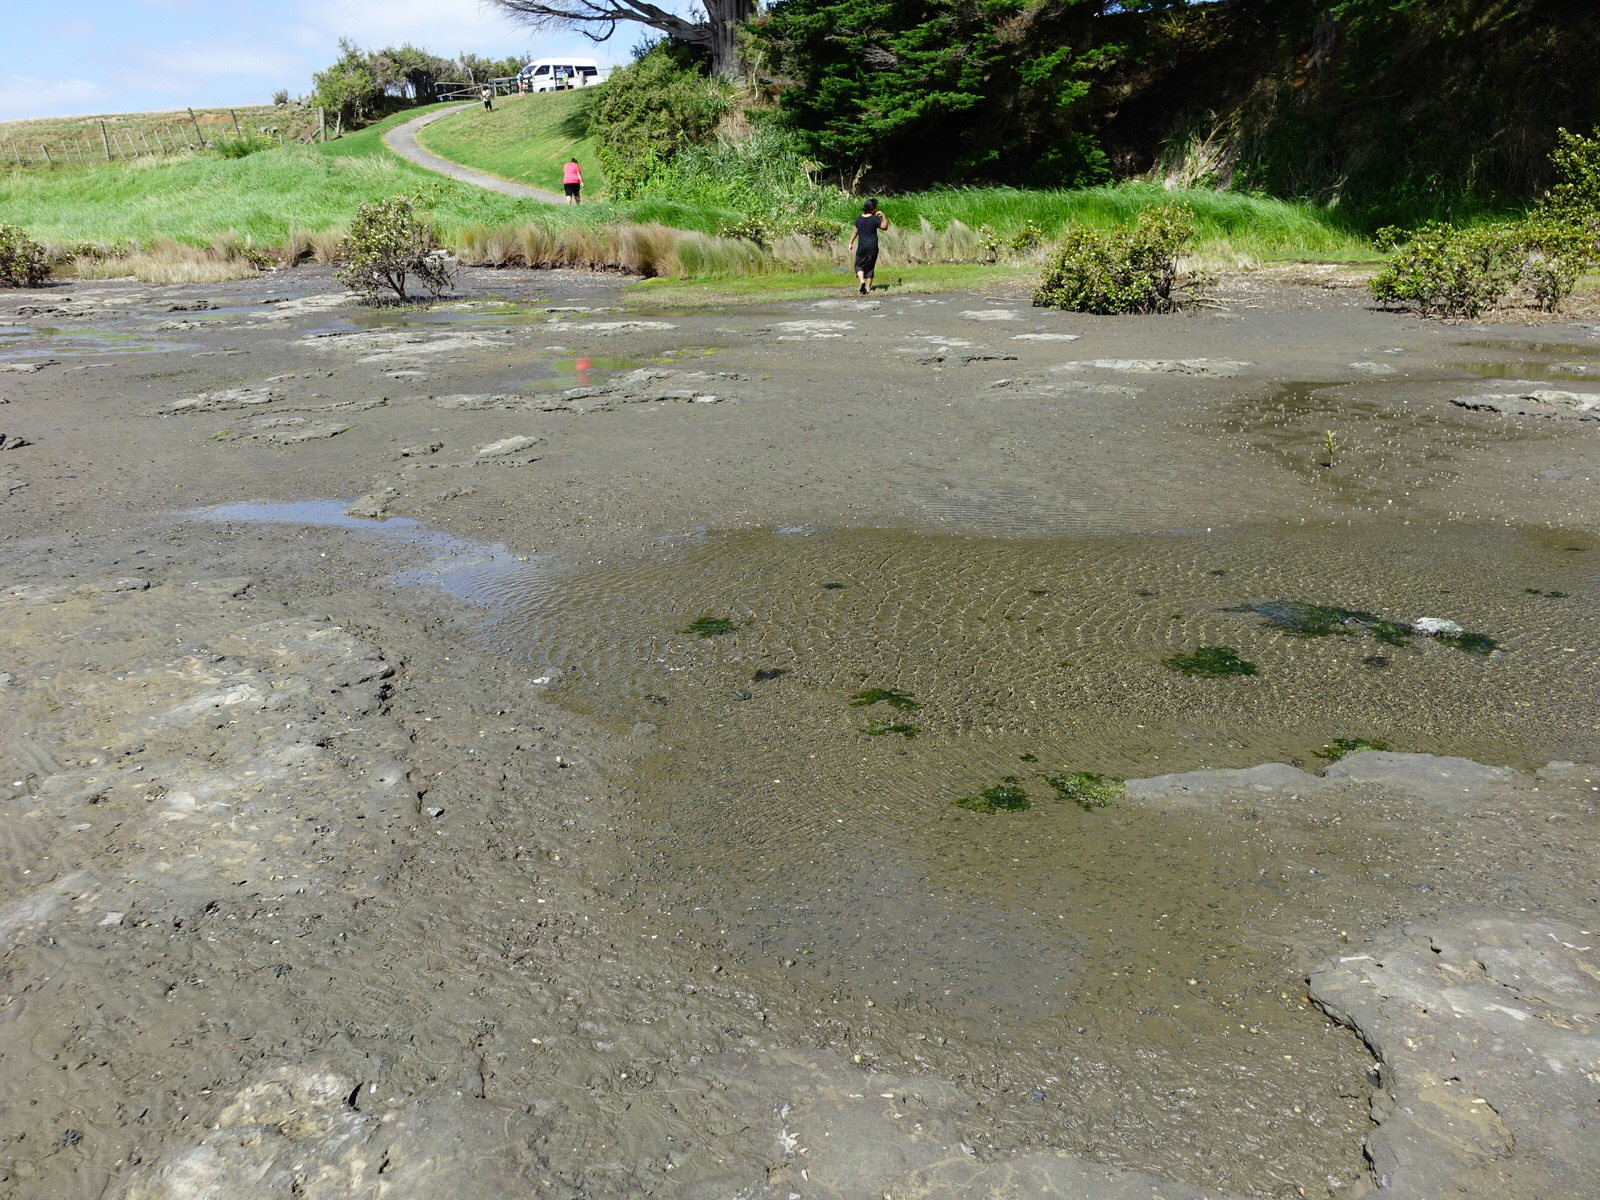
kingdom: Animalia
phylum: Mollusca
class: Gastropoda
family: Batillariidae
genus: Zeacumantus
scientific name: Zeacumantus lutulentus
